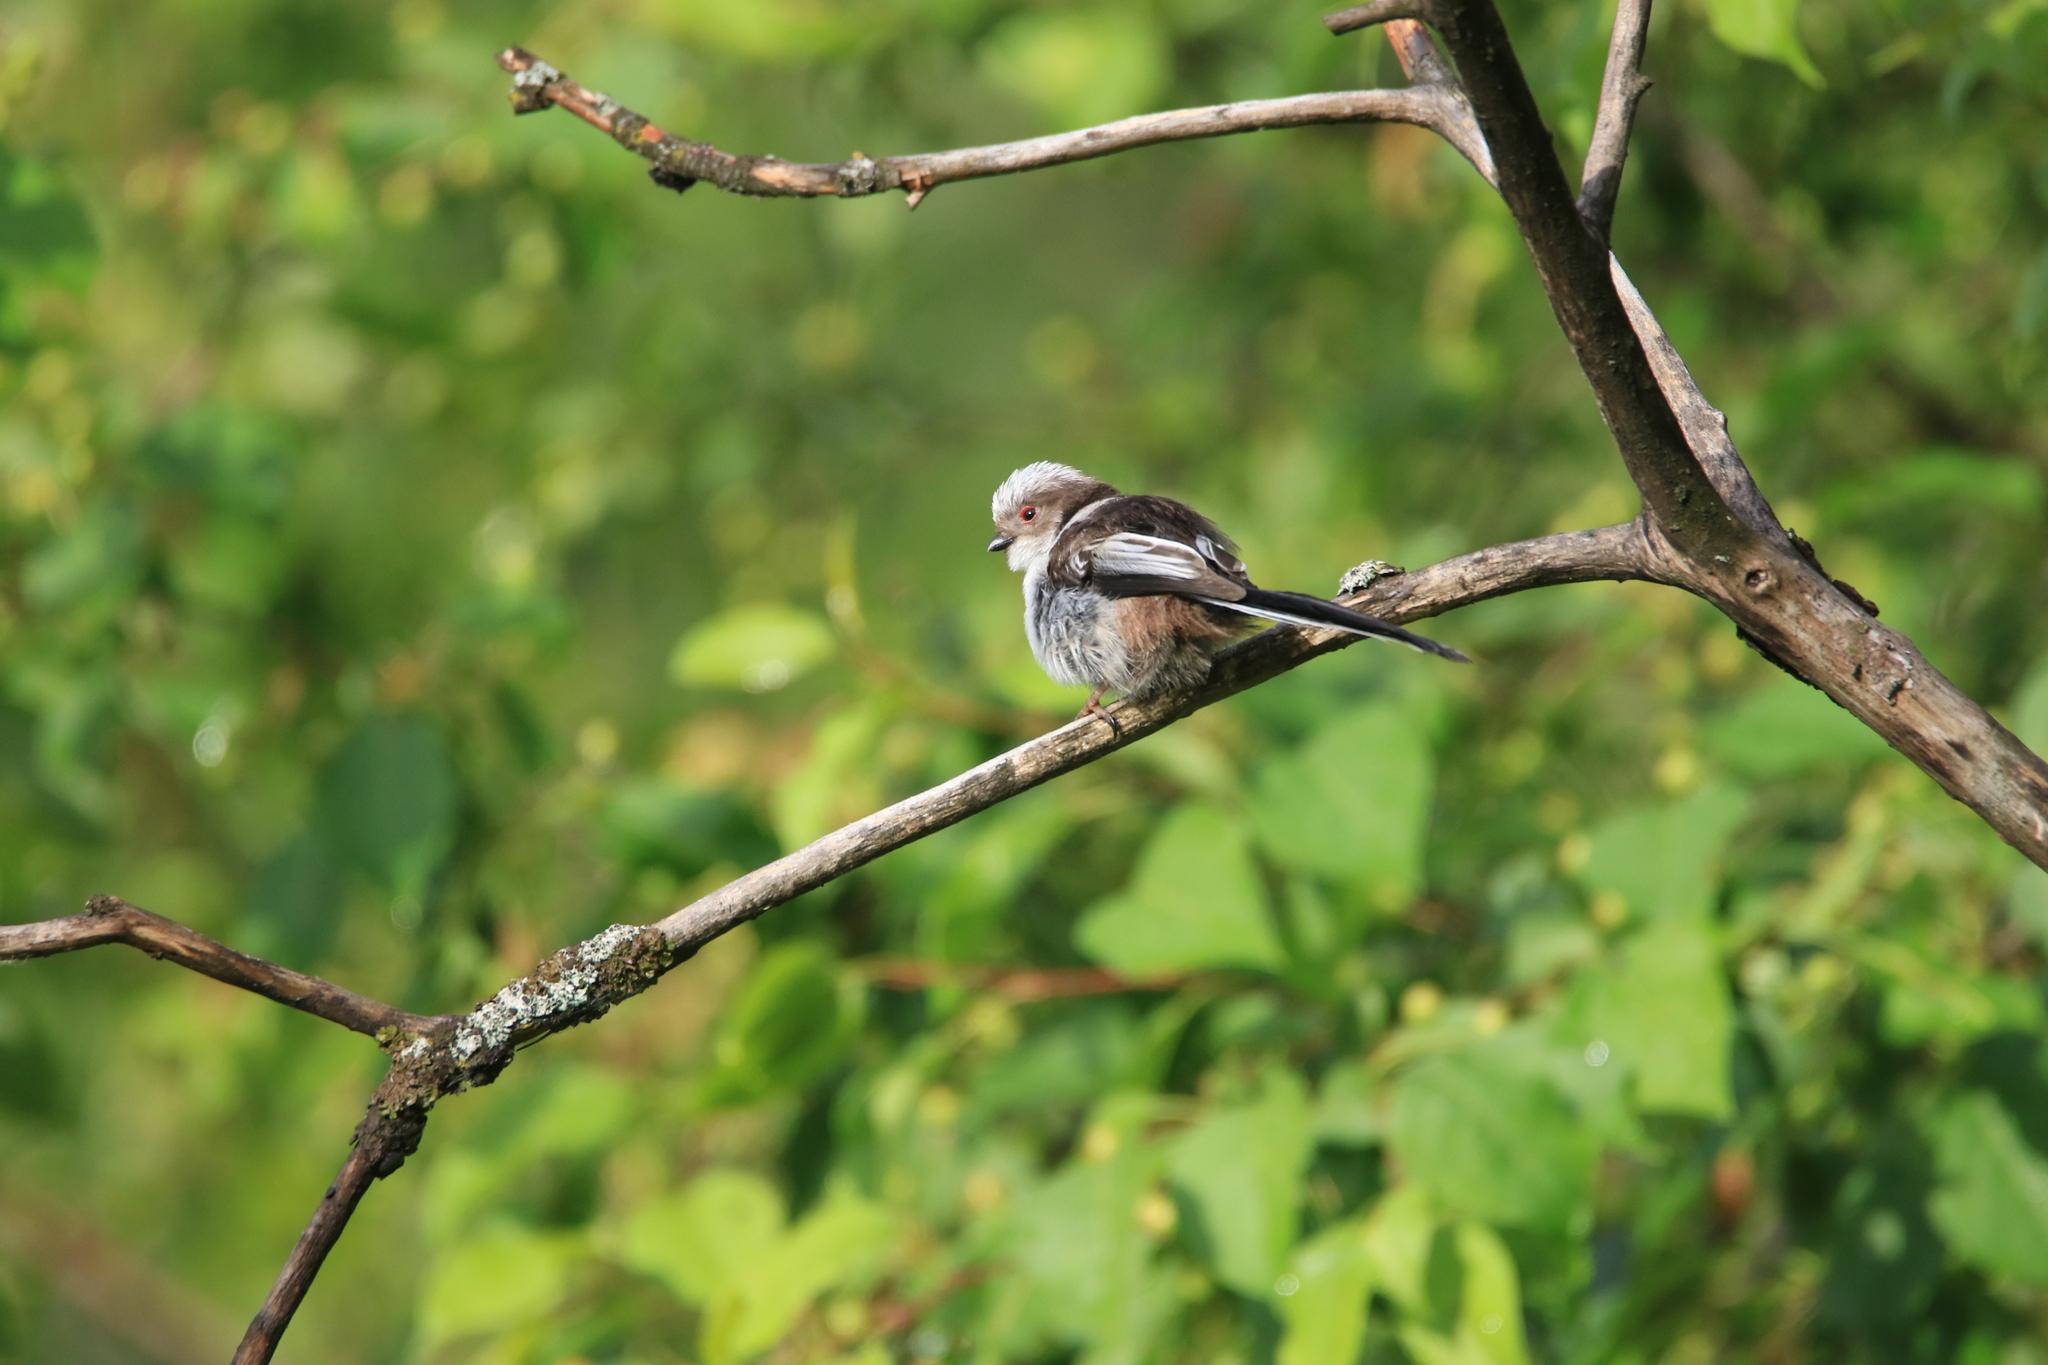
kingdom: Animalia
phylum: Chordata
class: Aves
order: Passeriformes
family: Aegithalidae
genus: Aegithalos
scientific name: Aegithalos caudatus
